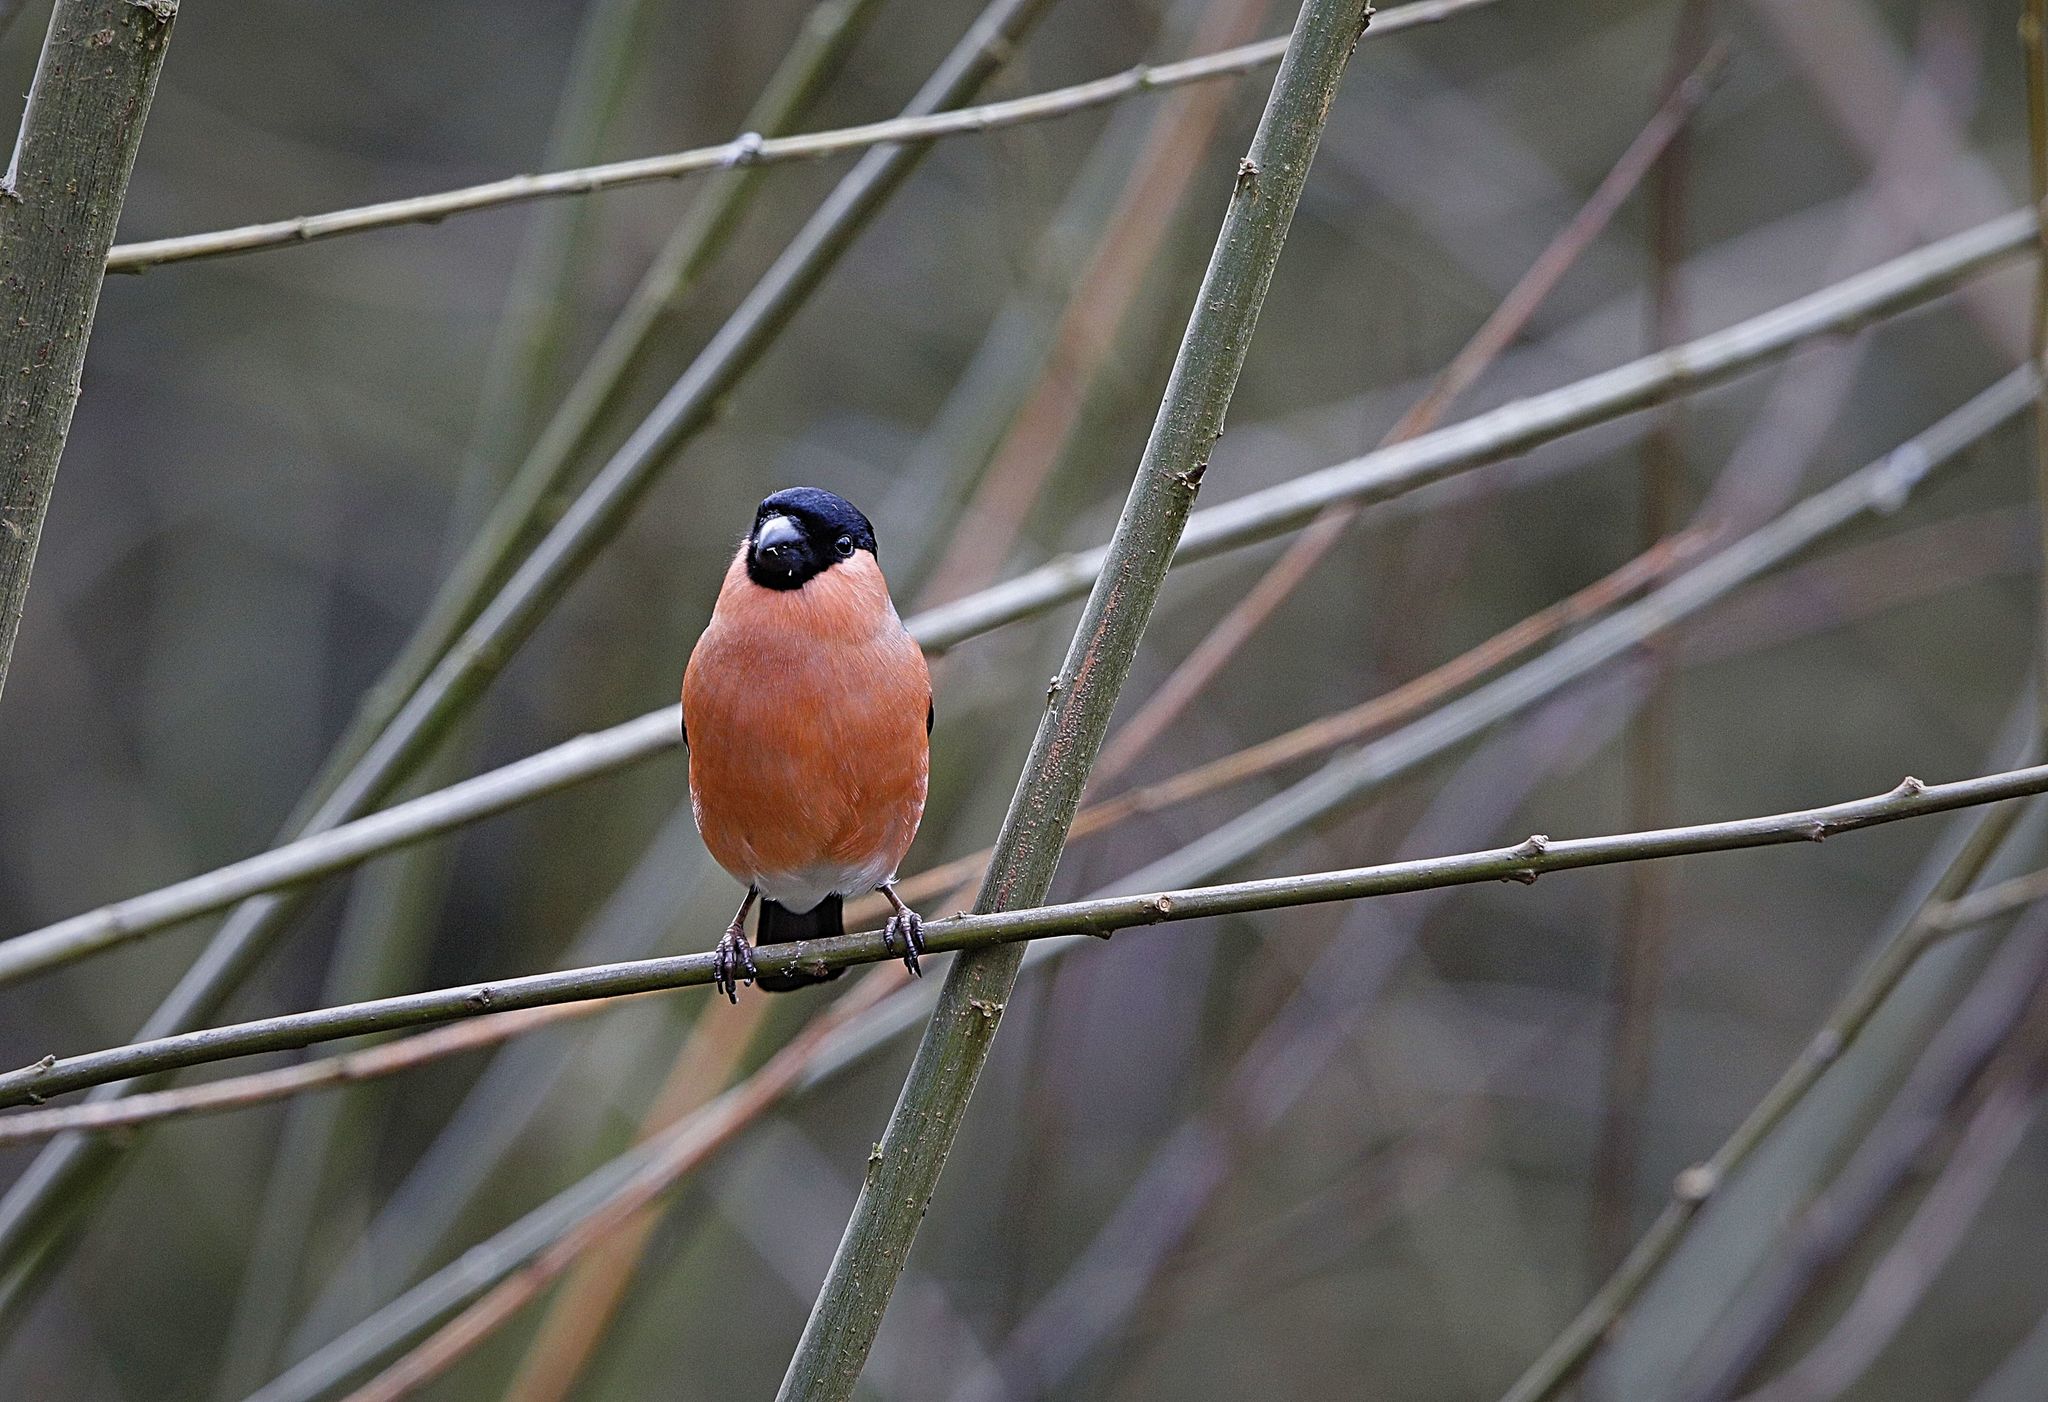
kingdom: Animalia
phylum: Chordata
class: Aves
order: Passeriformes
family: Fringillidae
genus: Pyrrhula
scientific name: Pyrrhula pyrrhula
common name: Eurasian bullfinch
